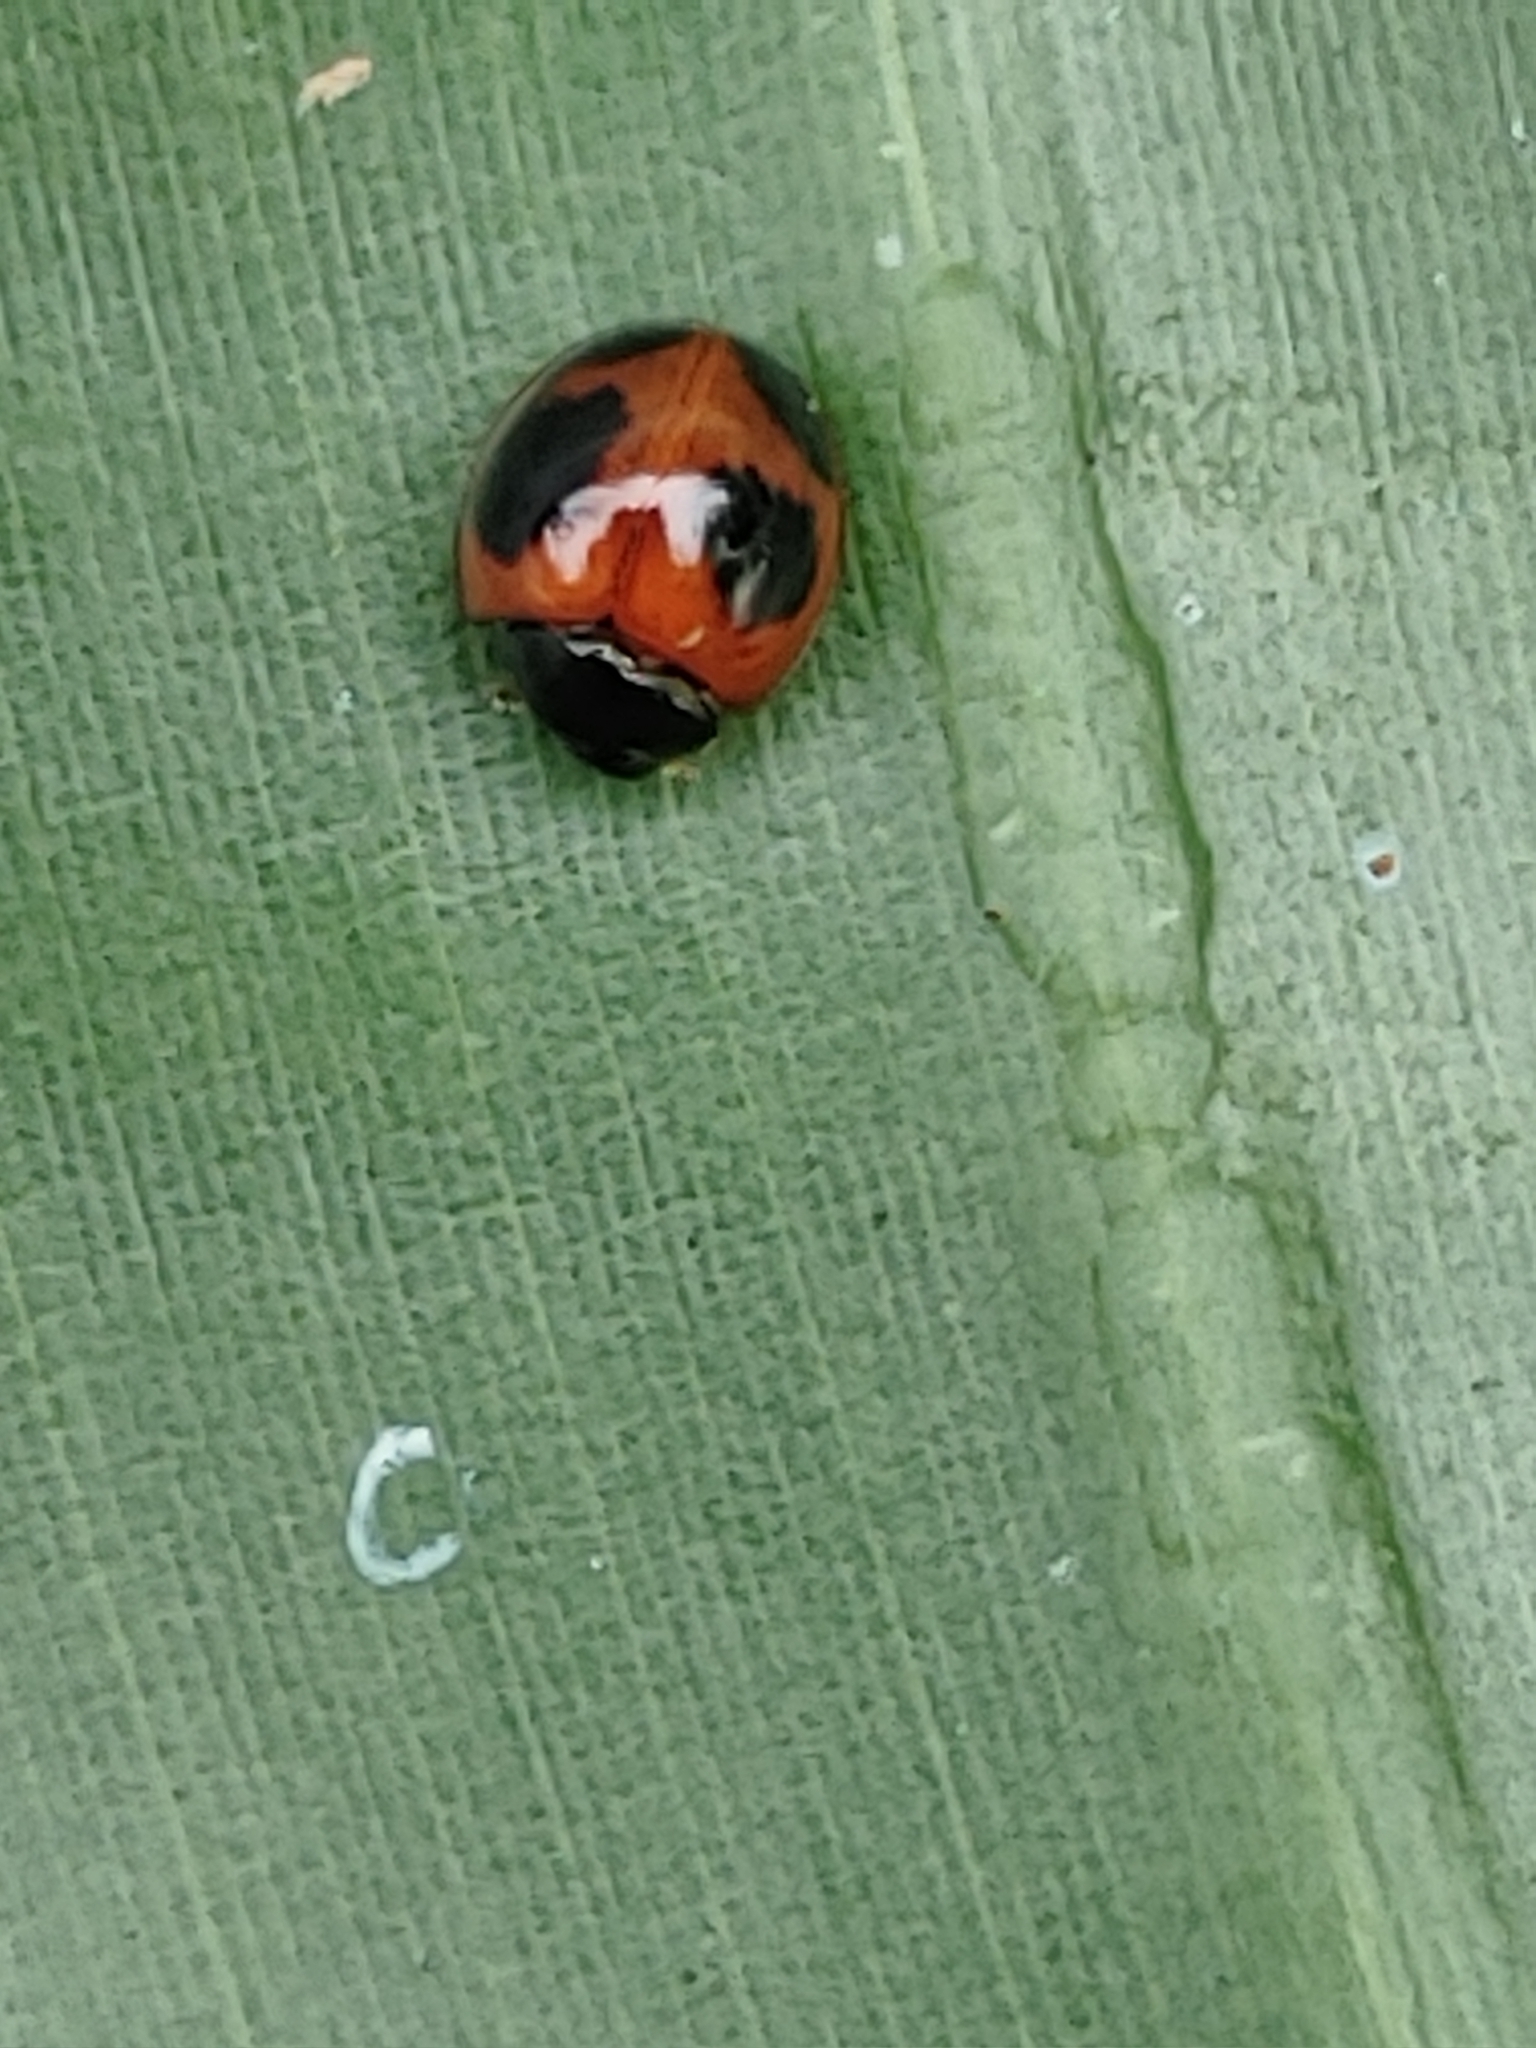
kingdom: Animalia
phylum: Arthropoda
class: Insecta
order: Coleoptera
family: Coccinellidae
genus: Exochomus
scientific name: Exochomus childreni
